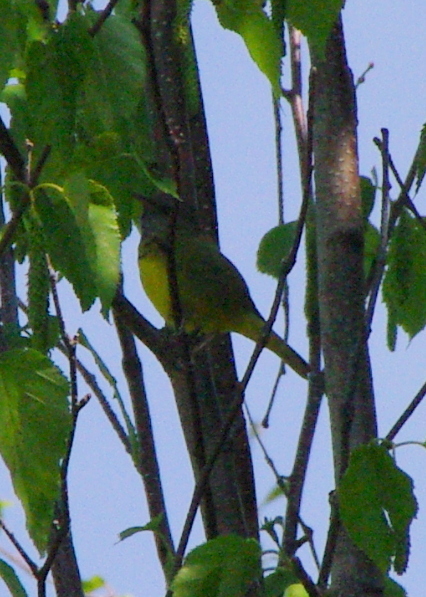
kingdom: Animalia
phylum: Chordata
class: Aves
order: Passeriformes
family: Parulidae
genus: Geothlypis
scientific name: Geothlypis philadelphia
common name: Mourning warbler
